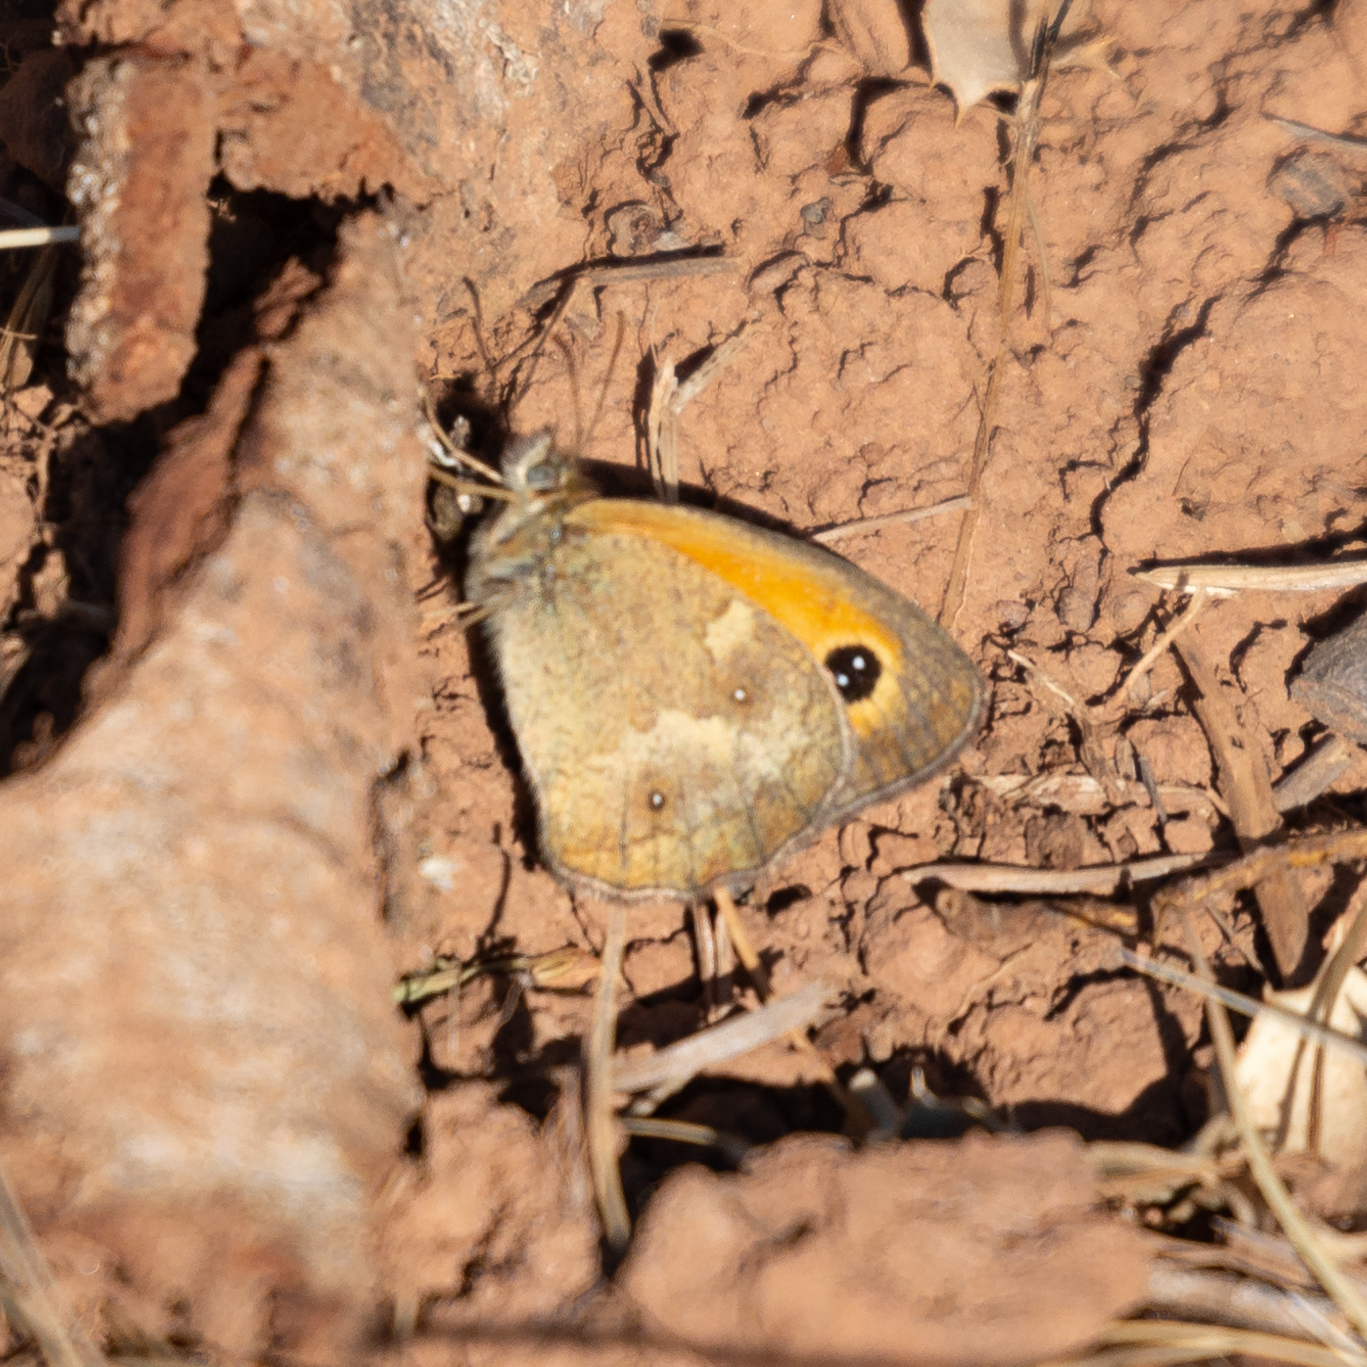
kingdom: Animalia
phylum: Arthropoda
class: Insecta
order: Lepidoptera
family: Nymphalidae
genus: Pyronia
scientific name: Pyronia tithonus
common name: Gatekeeper
